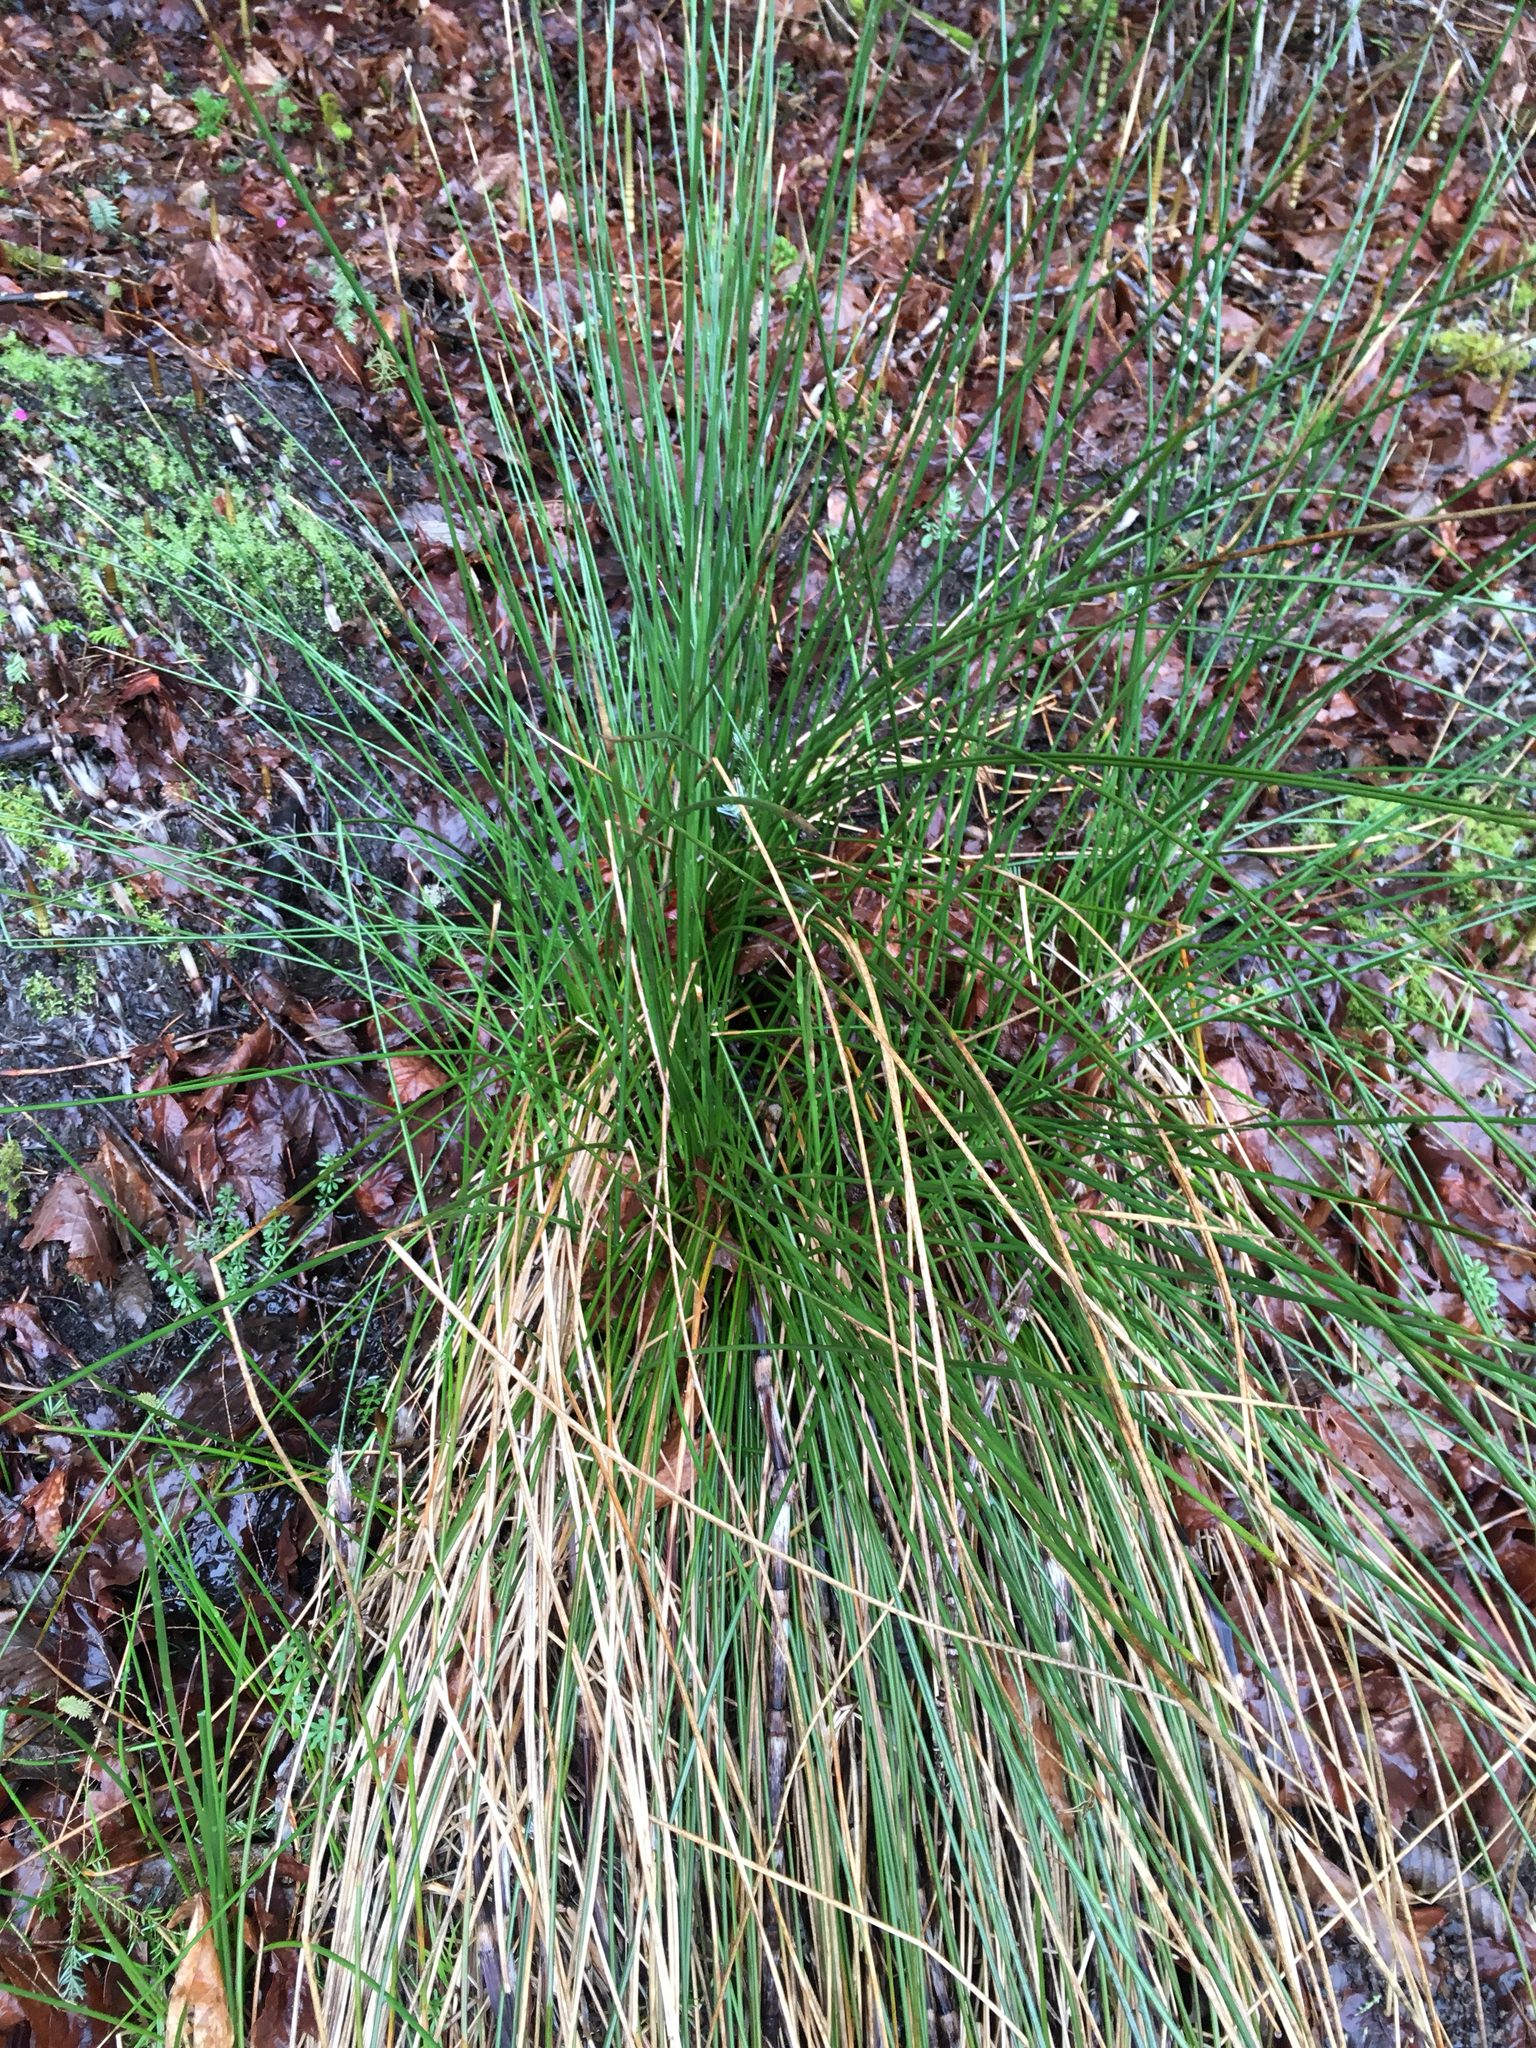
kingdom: Plantae
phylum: Tracheophyta
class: Liliopsida
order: Poales
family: Juncaceae
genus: Juncus
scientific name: Juncus effusus
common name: Soft rush
